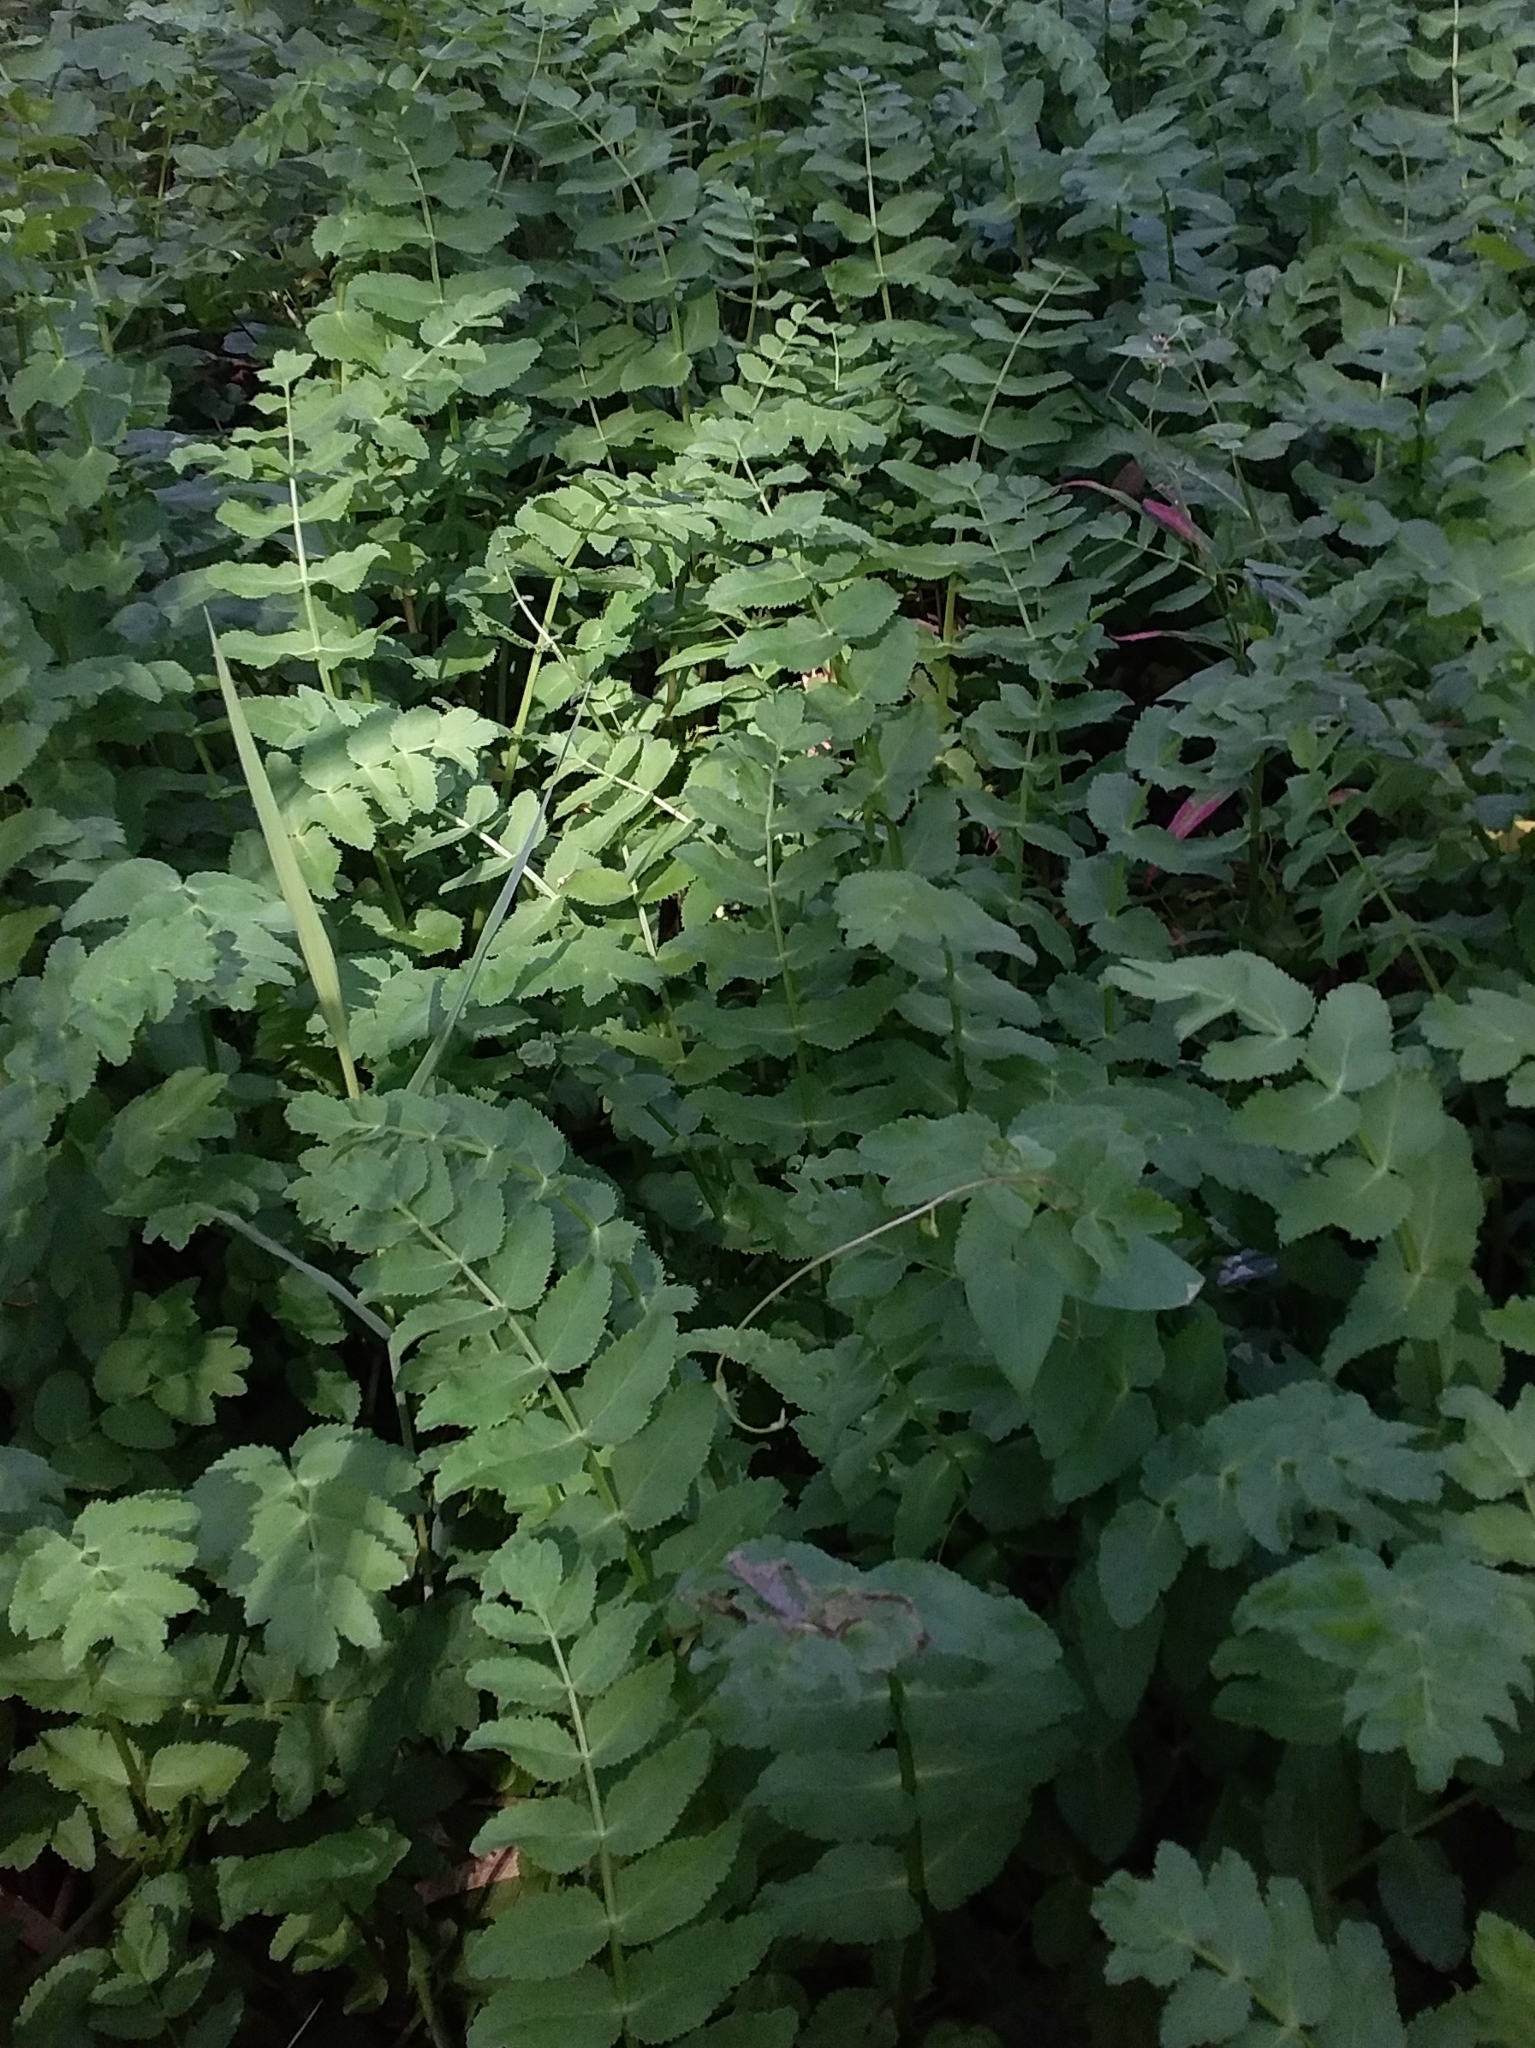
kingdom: Plantae
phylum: Tracheophyta
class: Magnoliopsida
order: Apiales
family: Apiaceae
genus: Berula
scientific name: Berula erecta
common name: Lesser water-parsnip
